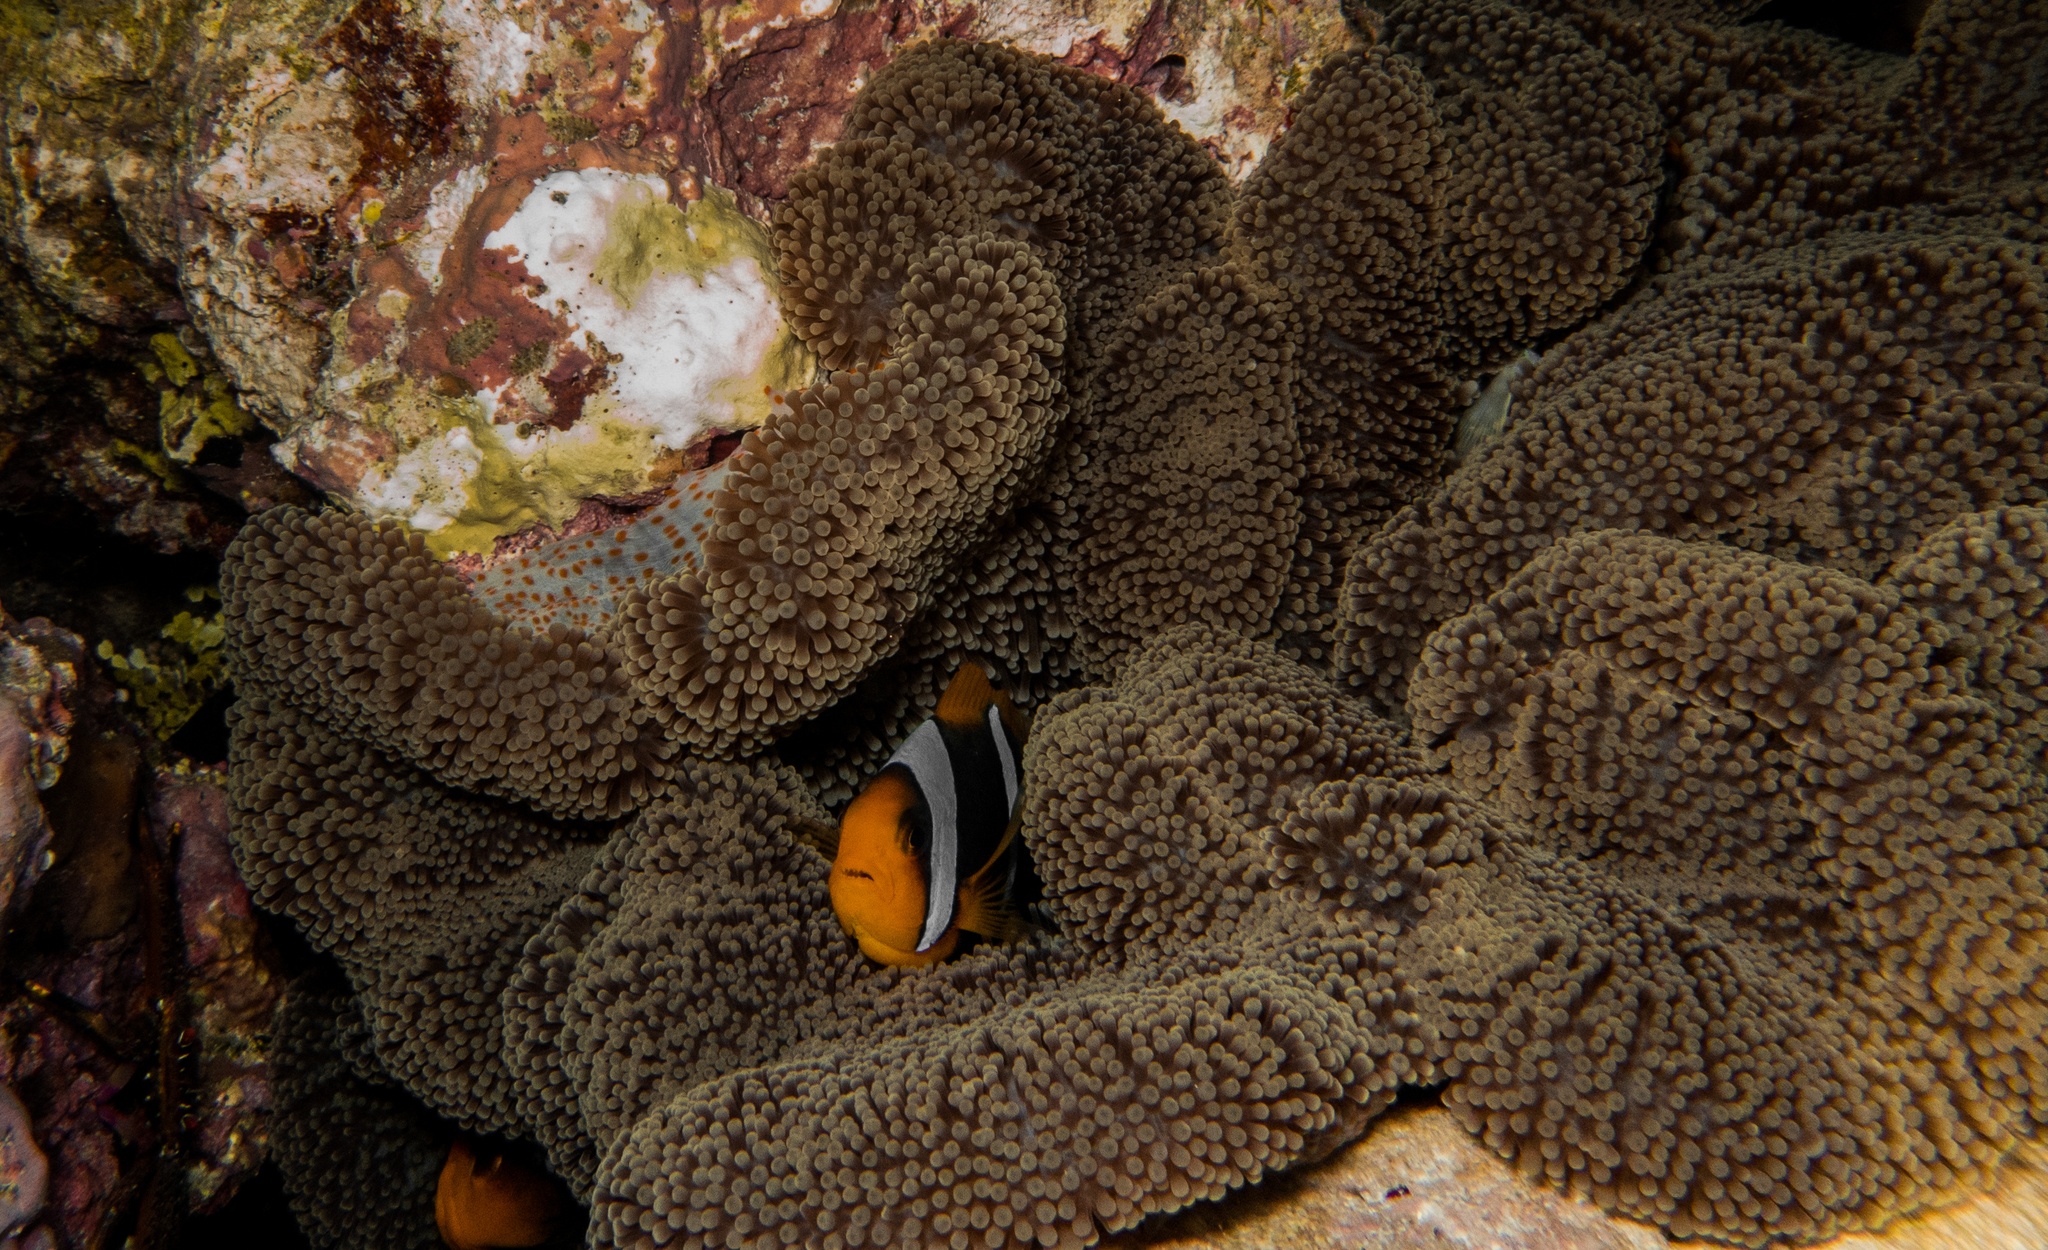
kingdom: Animalia
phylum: Chordata
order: Perciformes
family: Pomacentridae
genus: Amphiprion
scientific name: Amphiprion chrysopterus
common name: Orange-fin anemonefish
